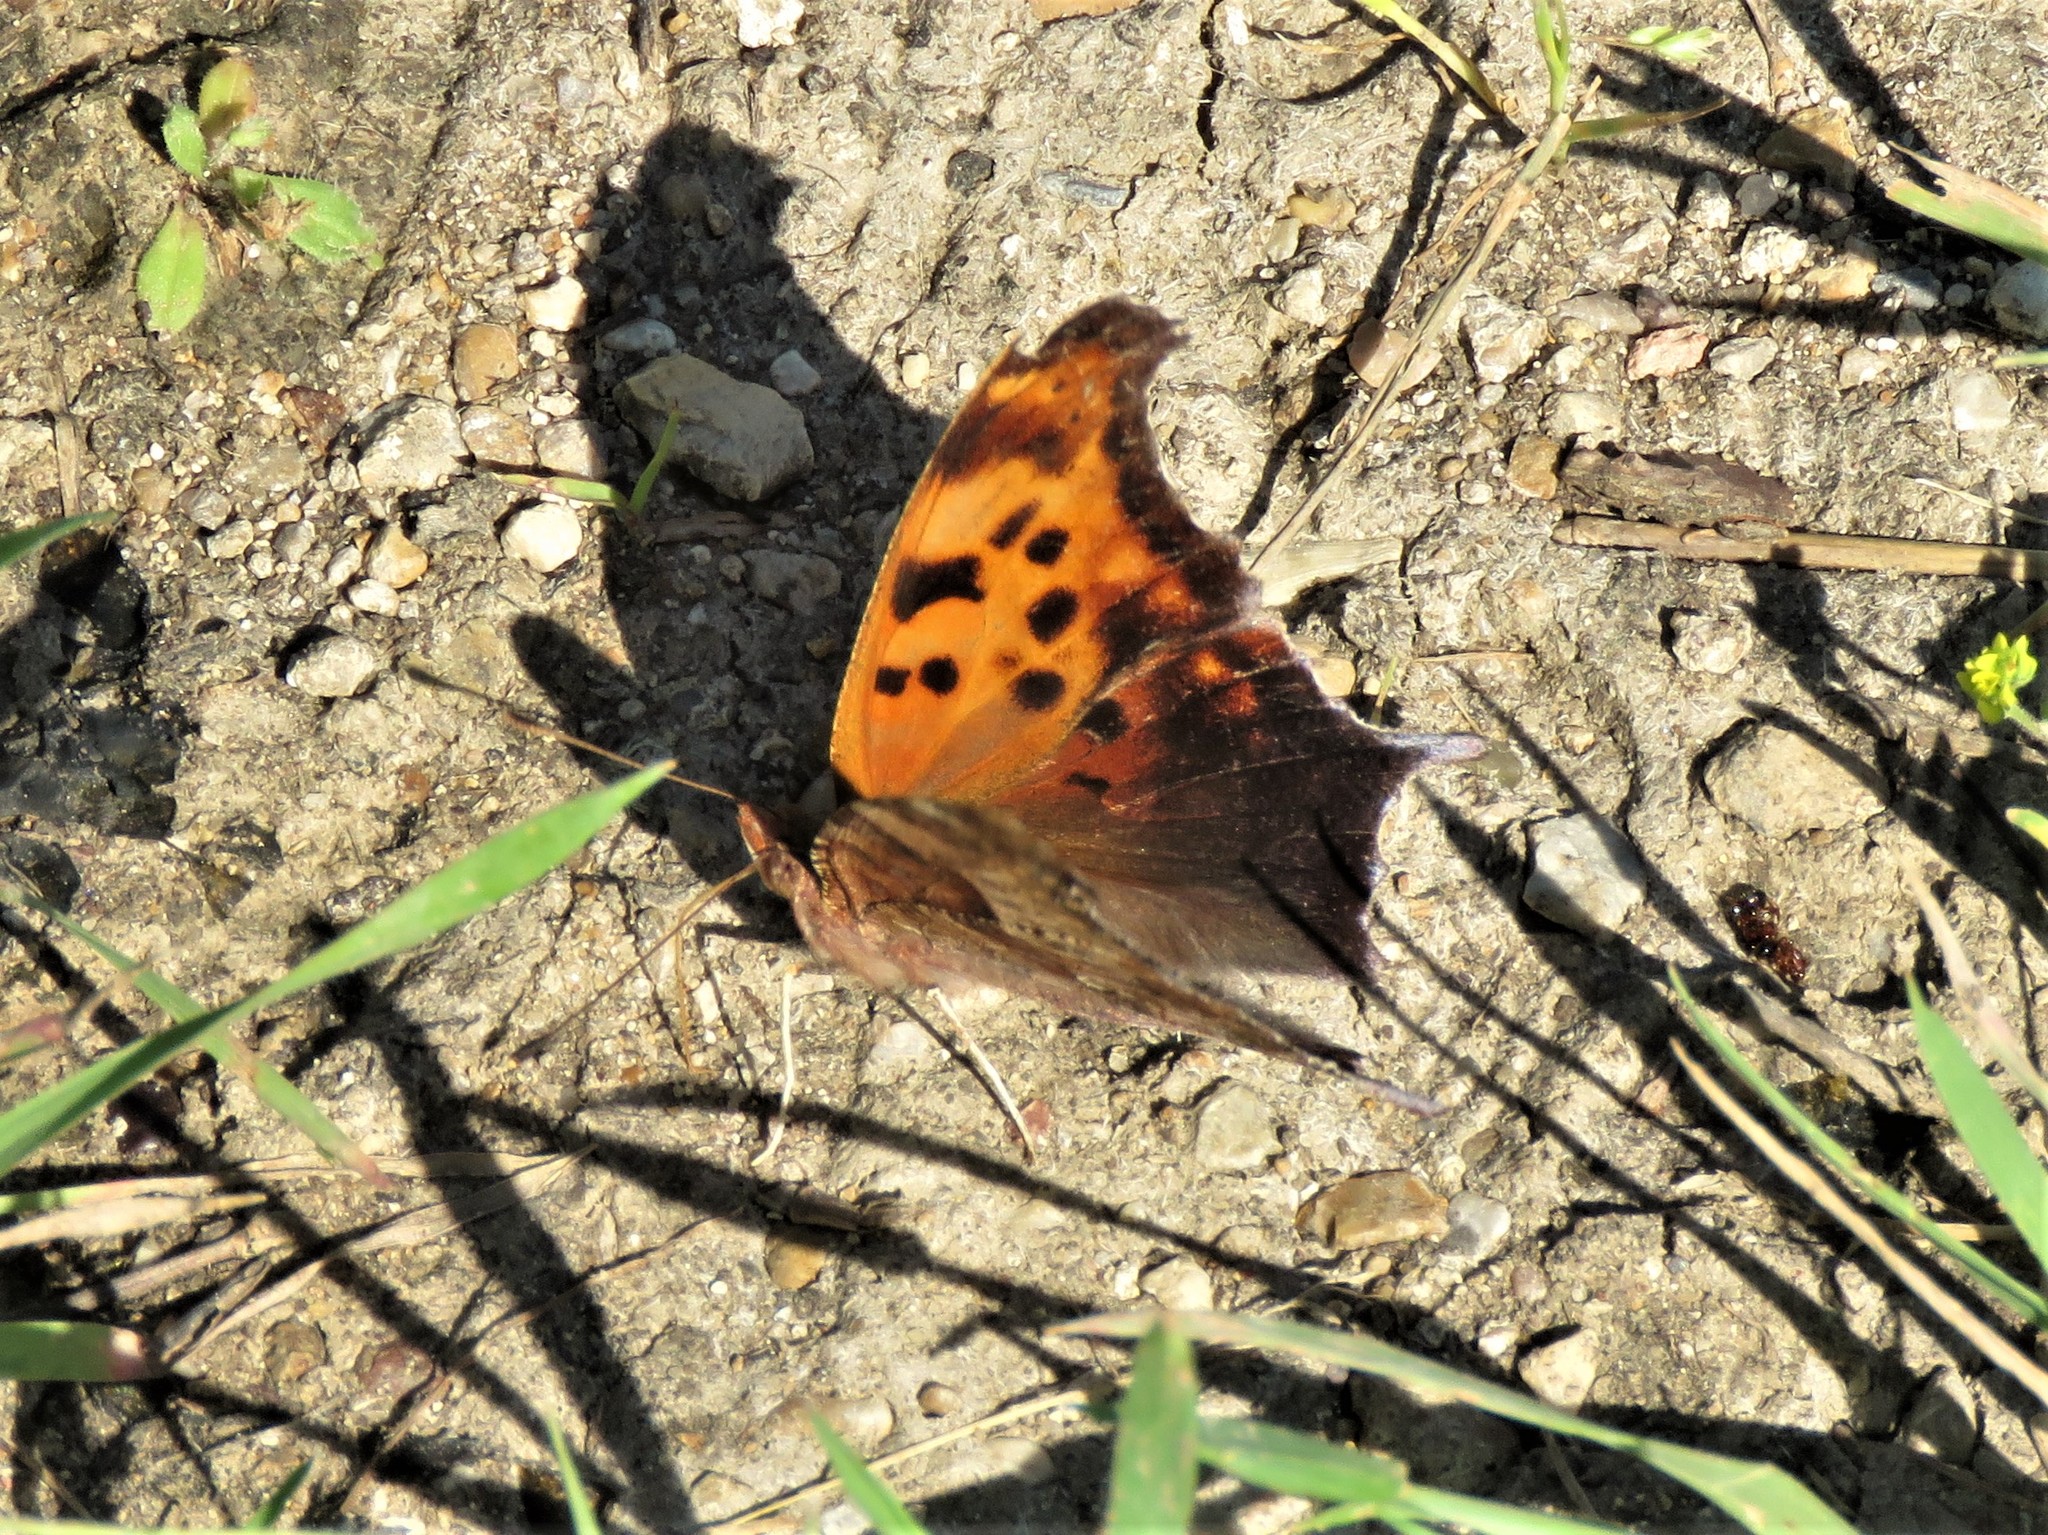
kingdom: Animalia
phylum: Arthropoda
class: Insecta
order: Lepidoptera
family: Nymphalidae
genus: Polygonia
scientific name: Polygonia interrogationis
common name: Question mark
